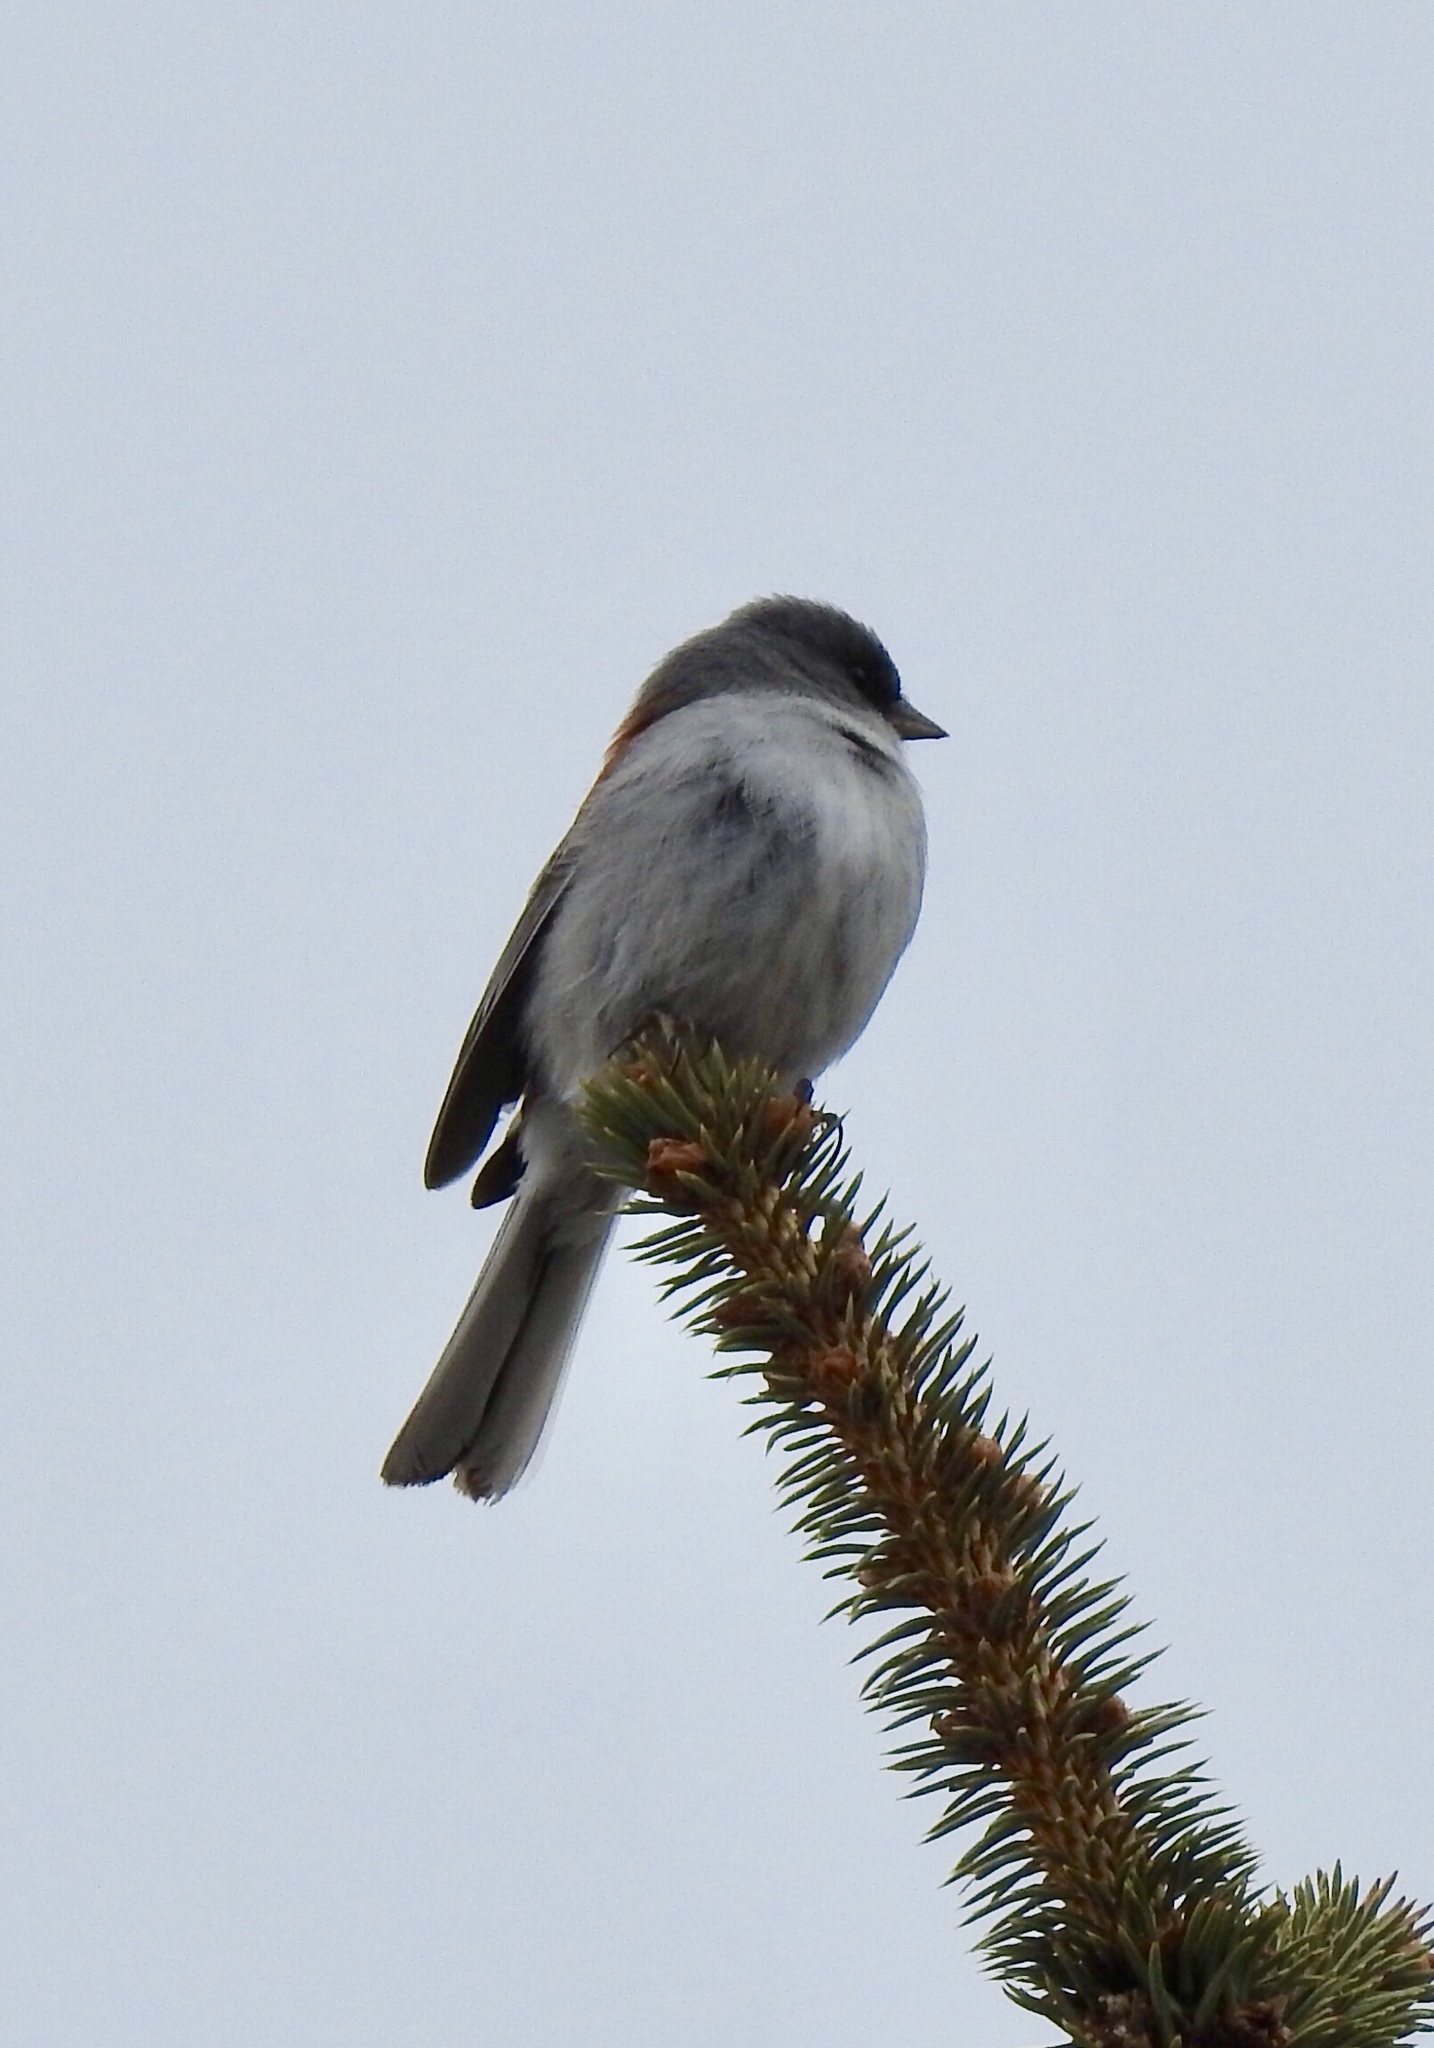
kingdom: Animalia
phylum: Chordata
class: Aves
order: Passeriformes
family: Passerellidae
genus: Junco
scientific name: Junco hyemalis
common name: Dark-eyed junco
